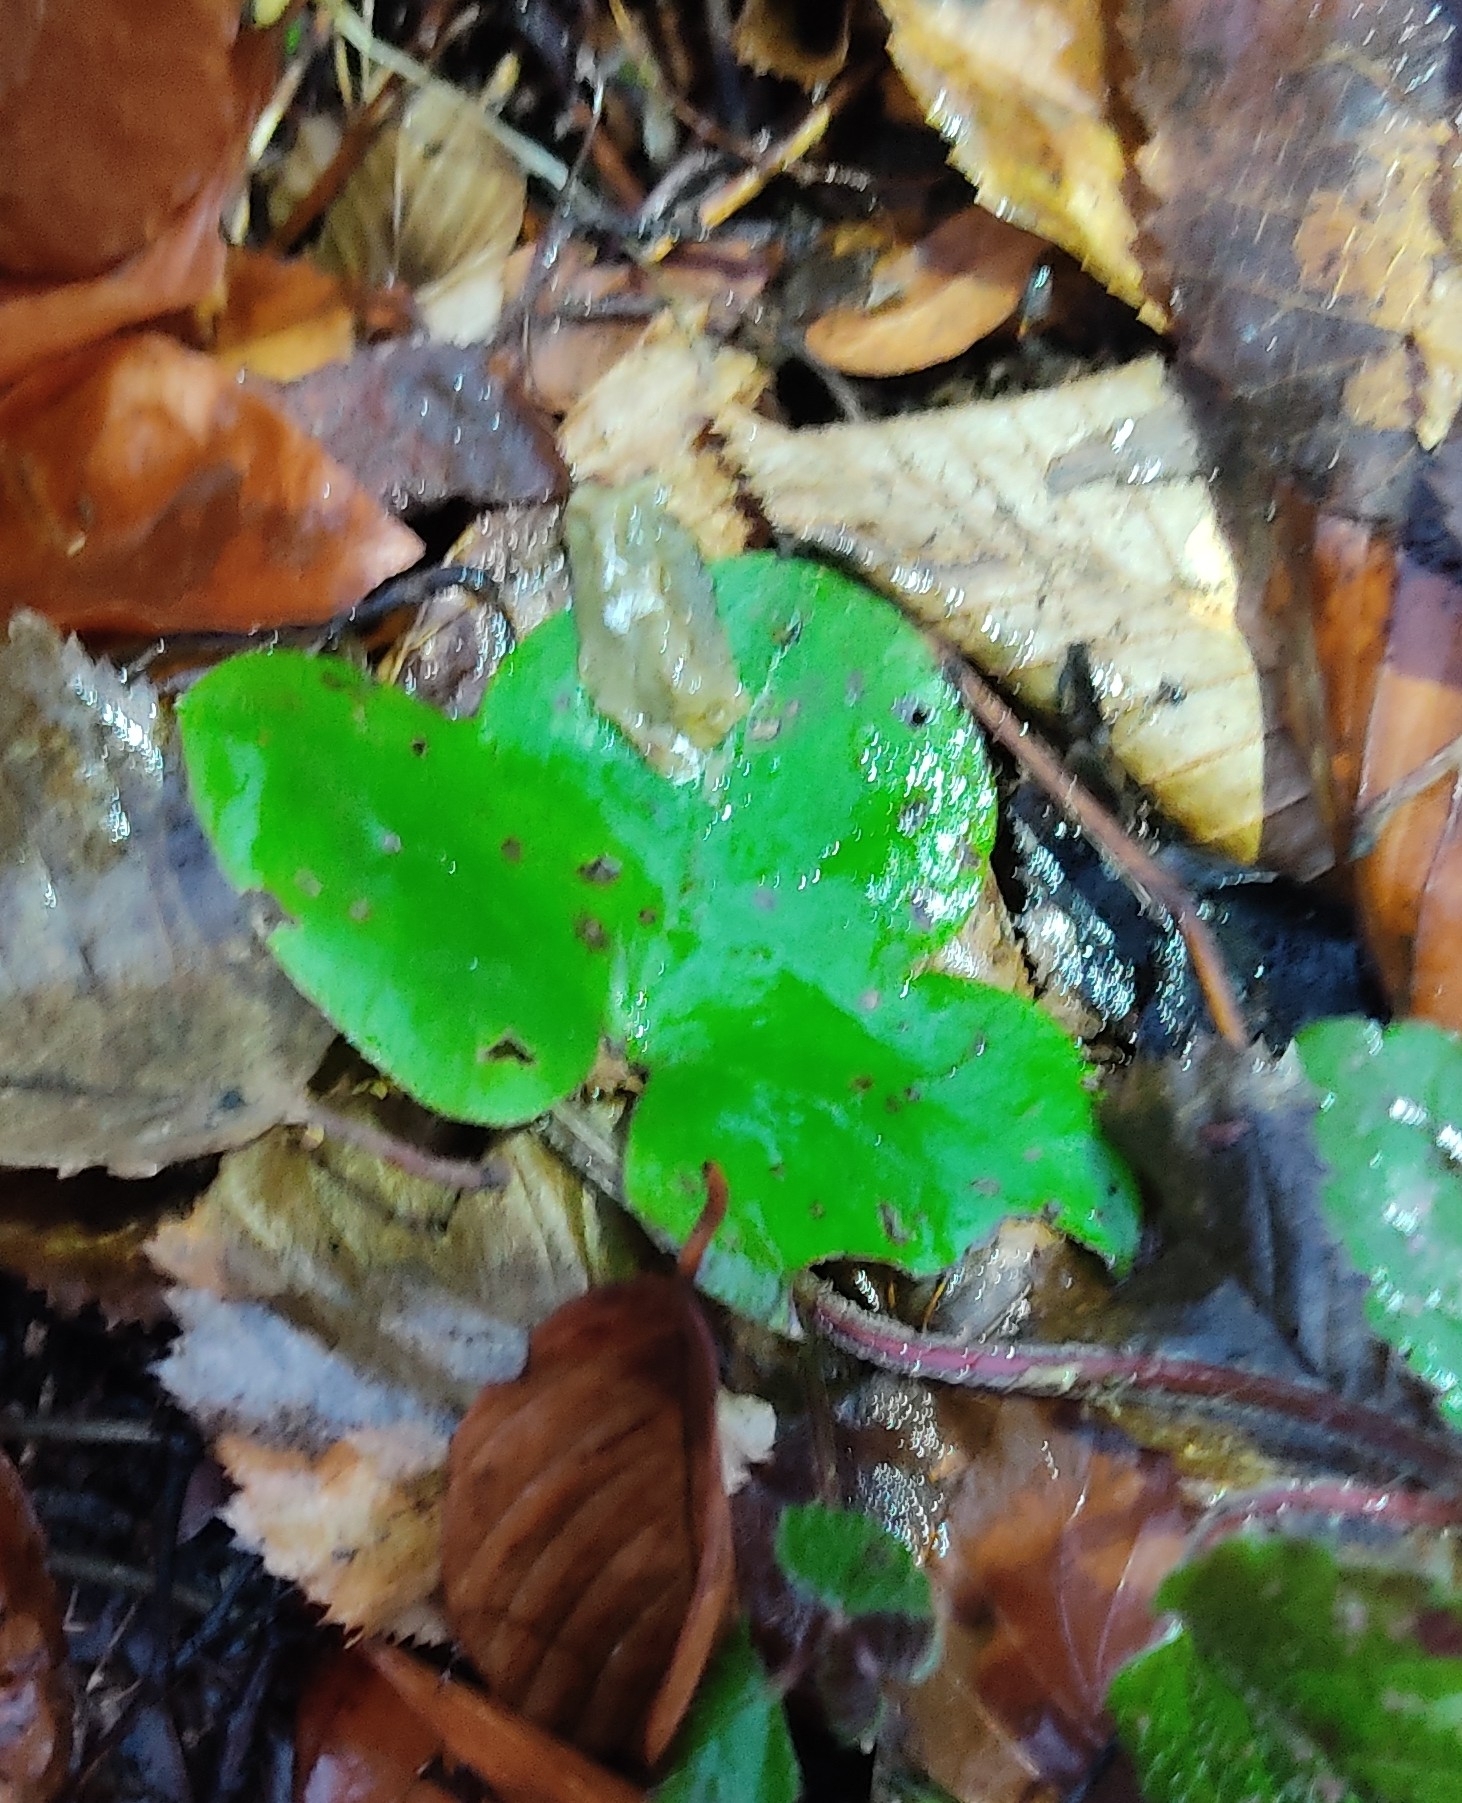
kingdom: Plantae
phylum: Tracheophyta
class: Magnoliopsida
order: Ranunculales
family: Ranunculaceae
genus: Hepatica
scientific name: Hepatica nobilis
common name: Liverleaf
